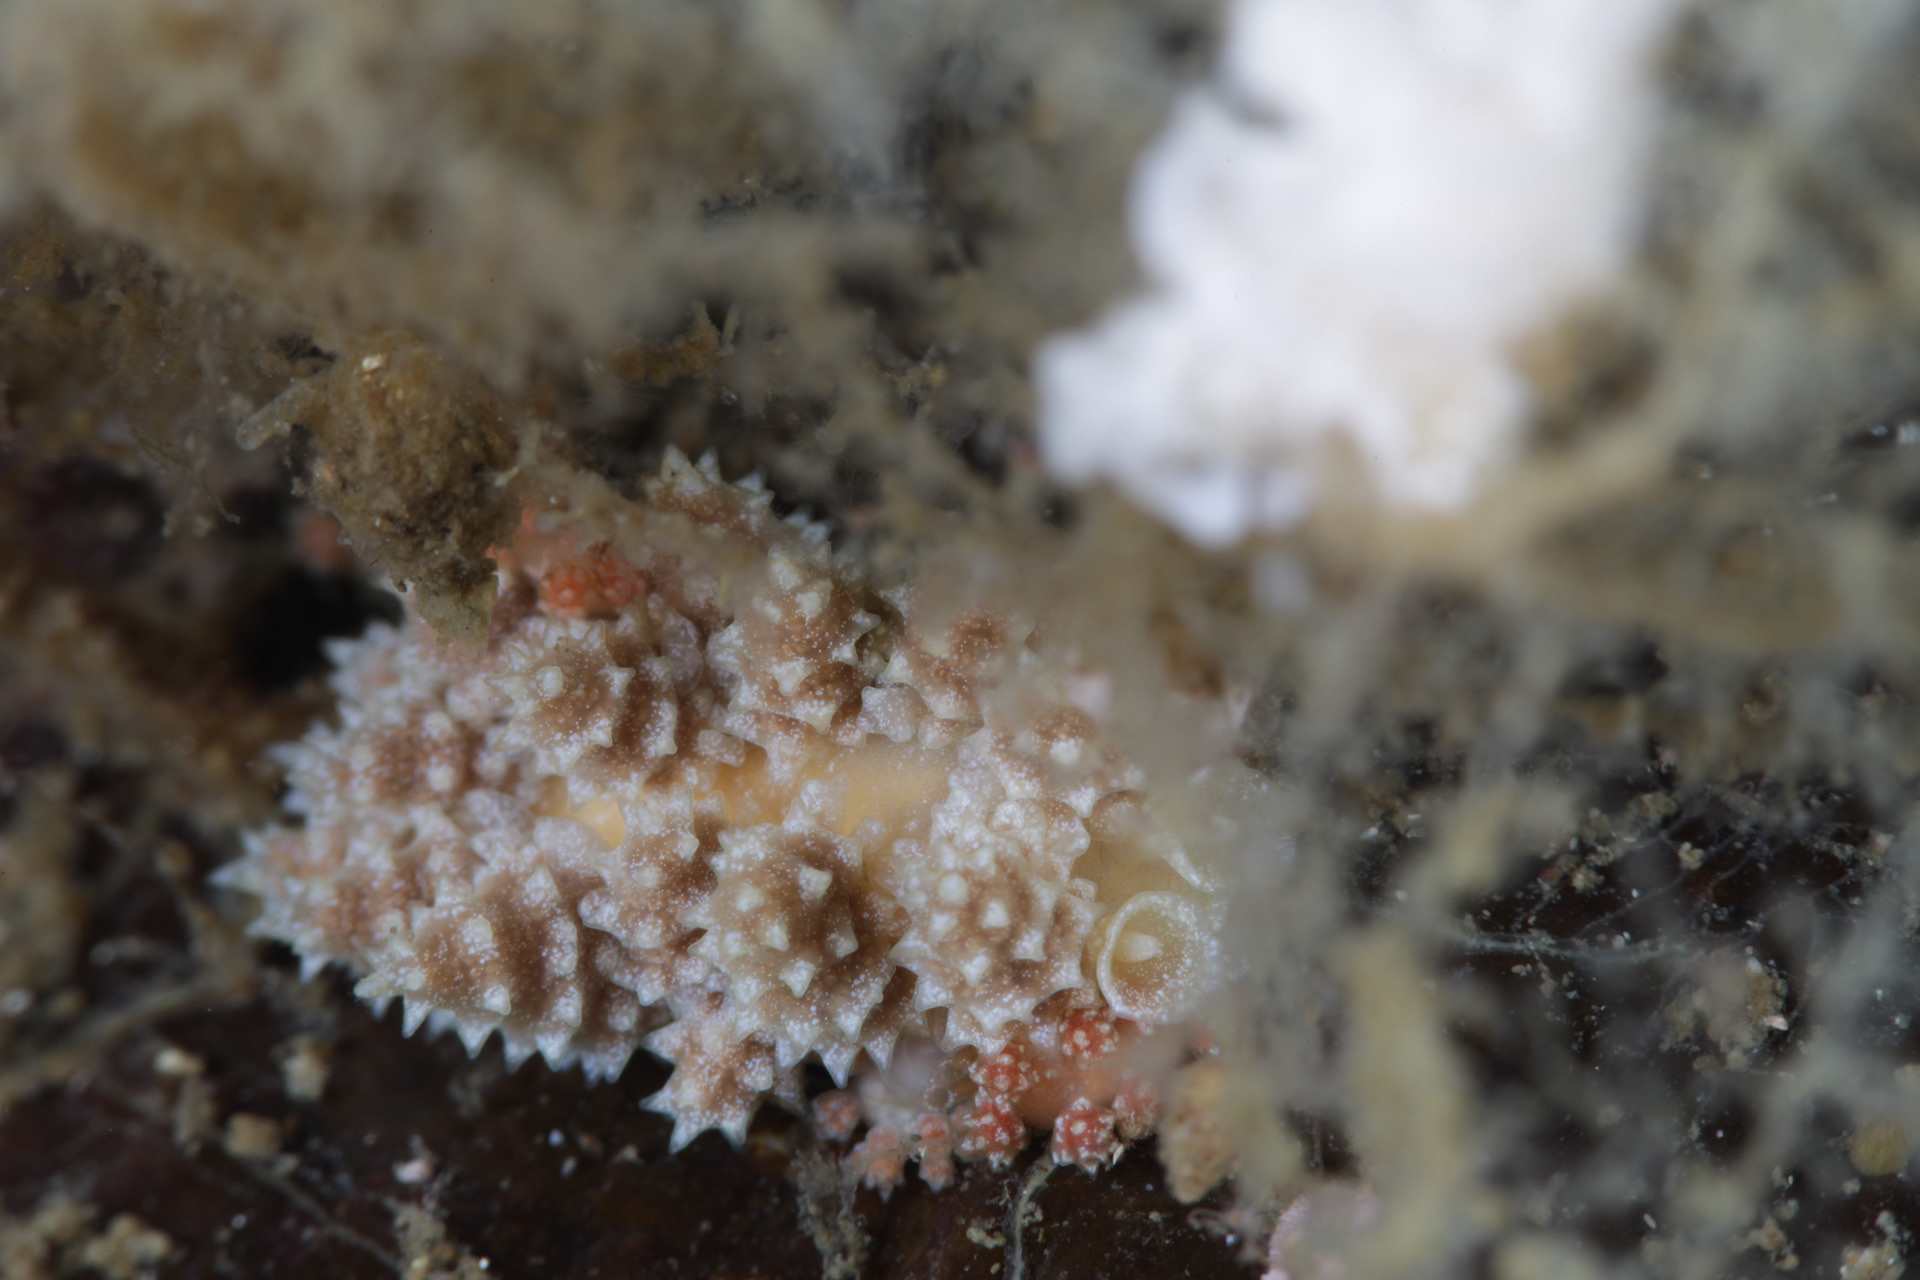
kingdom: Animalia
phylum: Mollusca
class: Gastropoda
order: Nudibranchia
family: Dotidae
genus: Doto
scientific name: Doto fragilis
